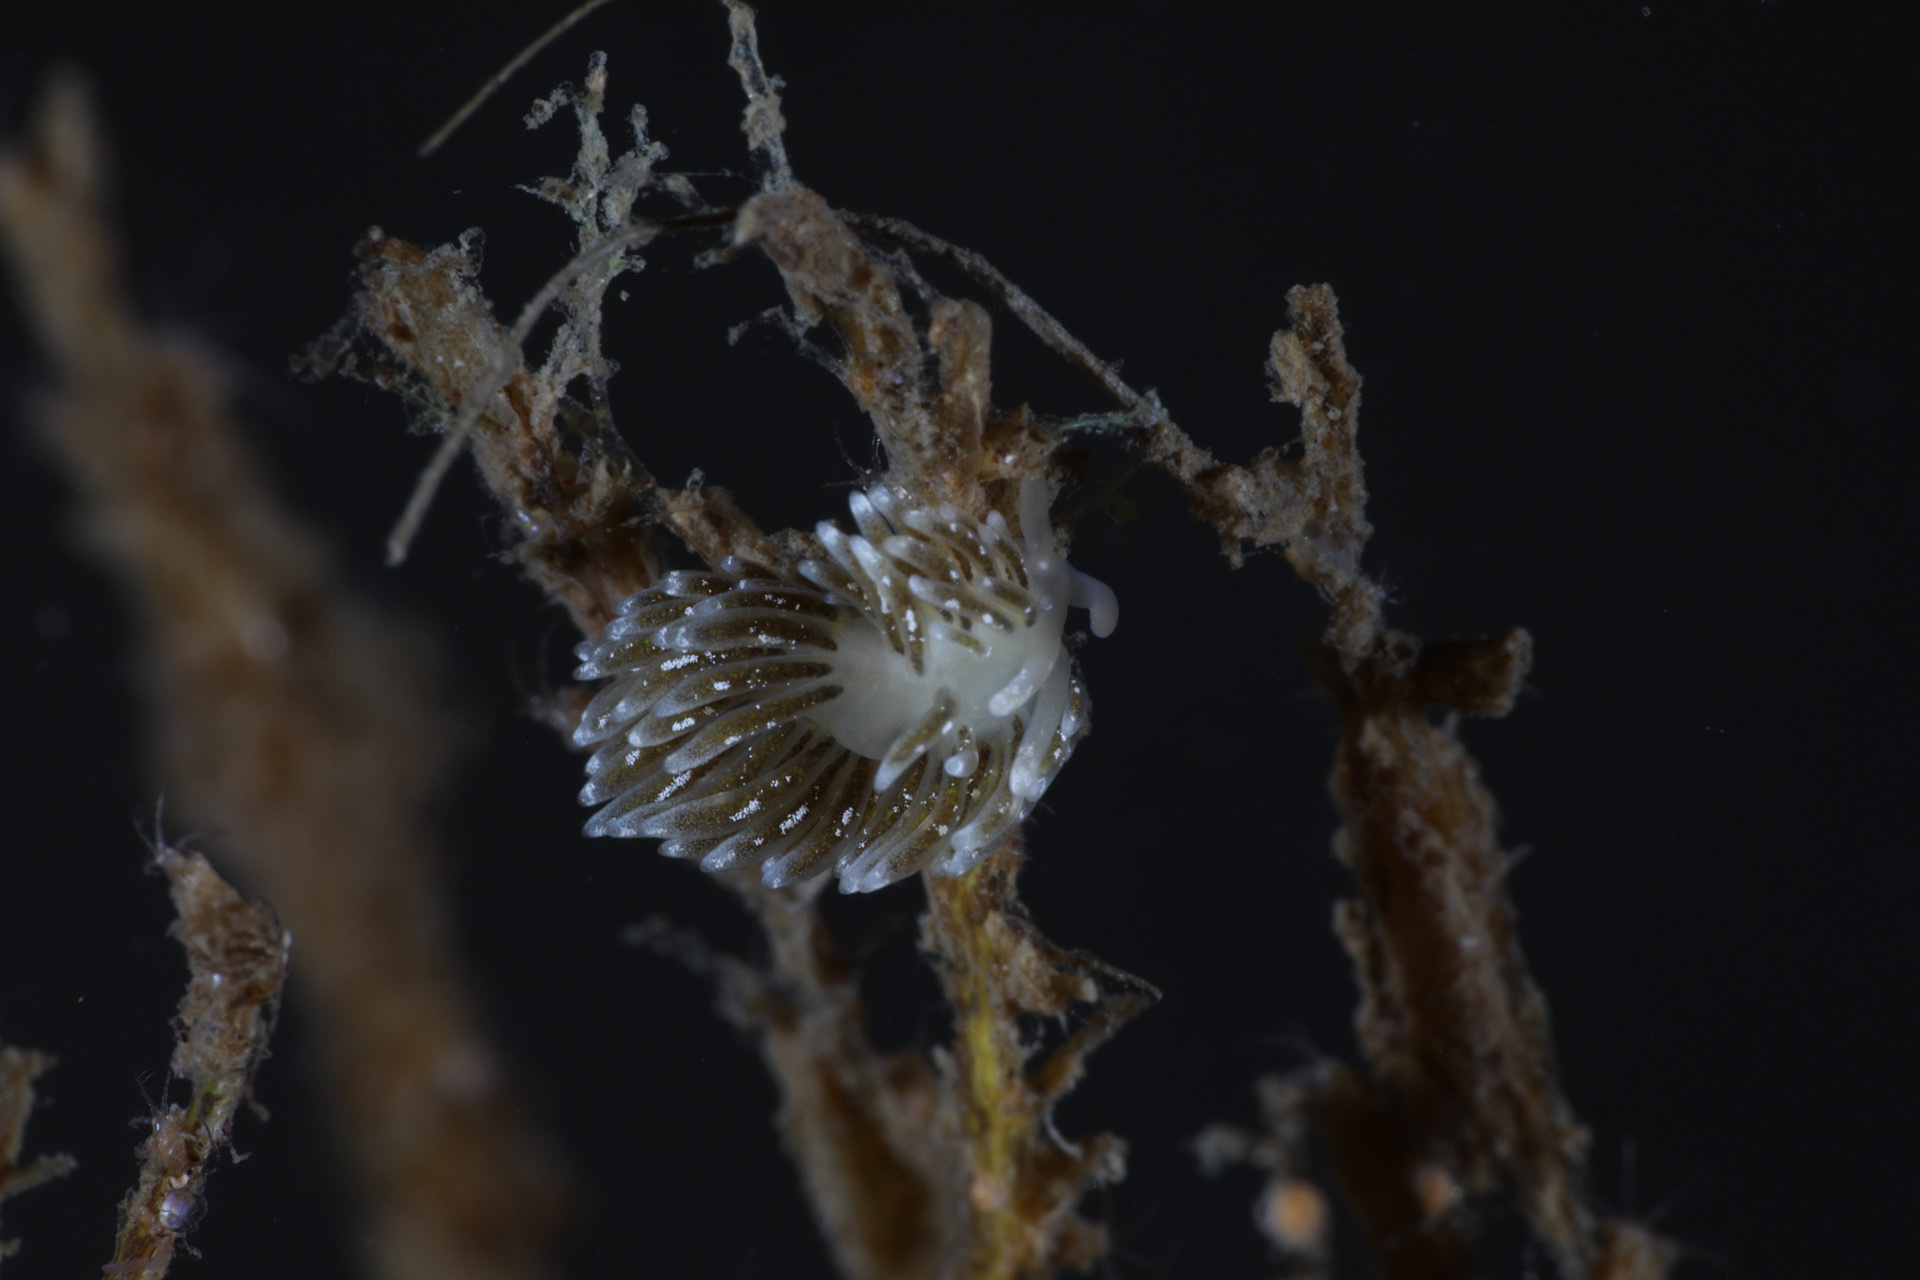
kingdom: Animalia
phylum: Mollusca
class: Gastropoda
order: Nudibranchia
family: Trinchesiidae
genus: Zelentia
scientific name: Zelentia pustulata
